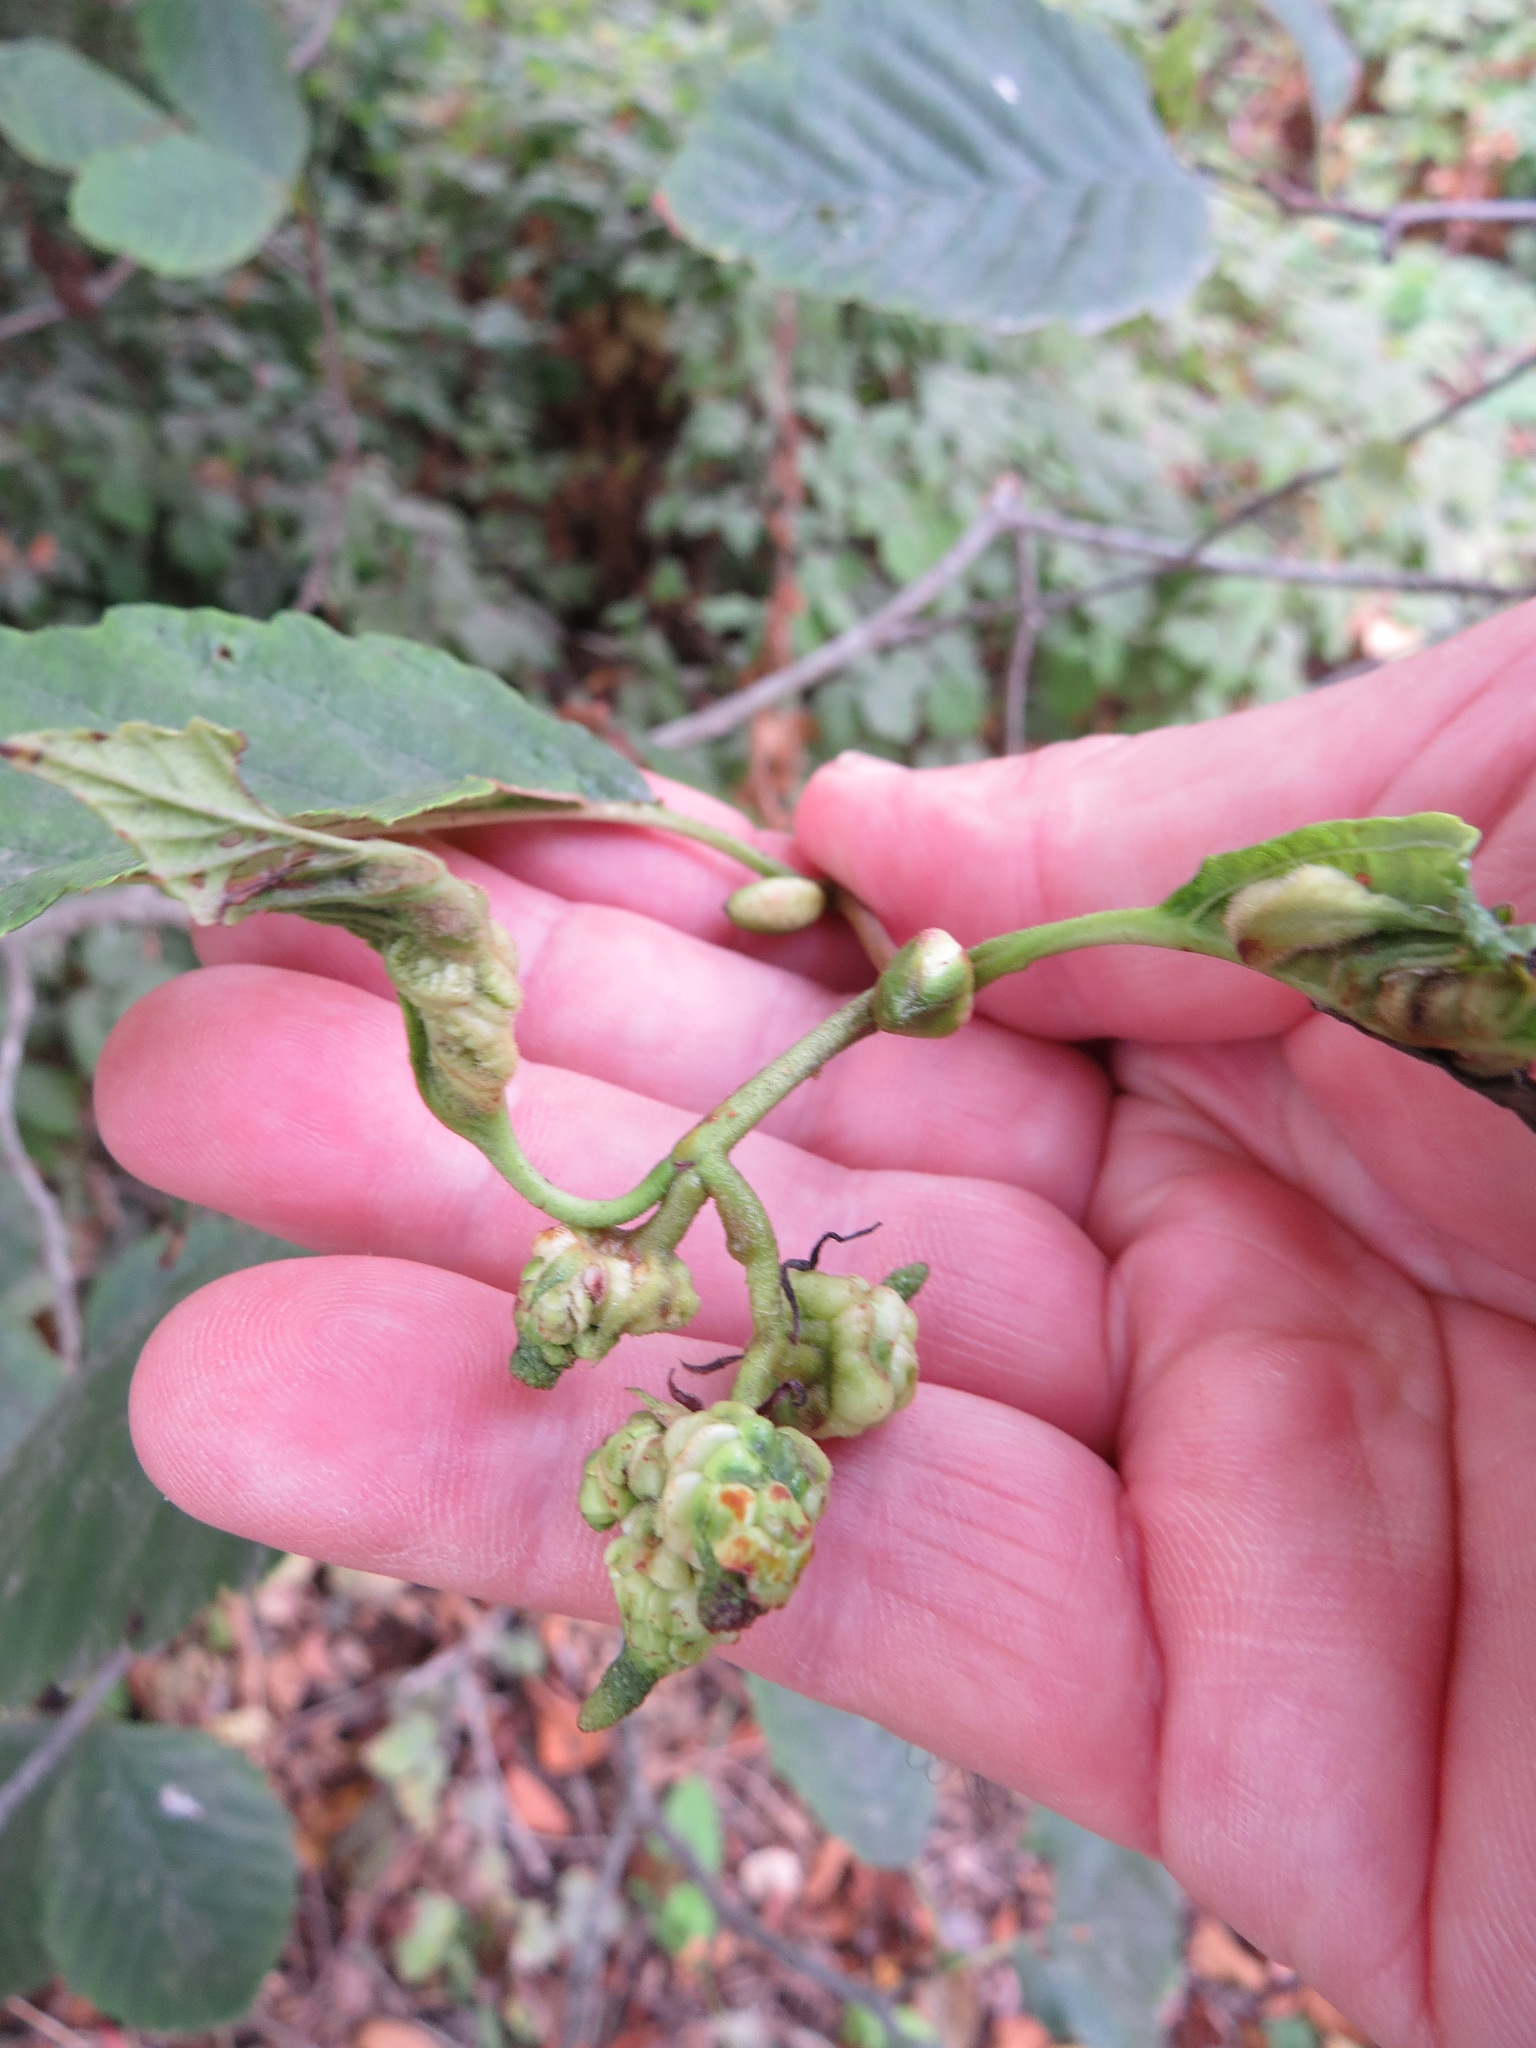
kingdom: Animalia
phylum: Arthropoda
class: Insecta
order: Diptera
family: Cecidomyiidae
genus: Dasineura
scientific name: Dasineura
